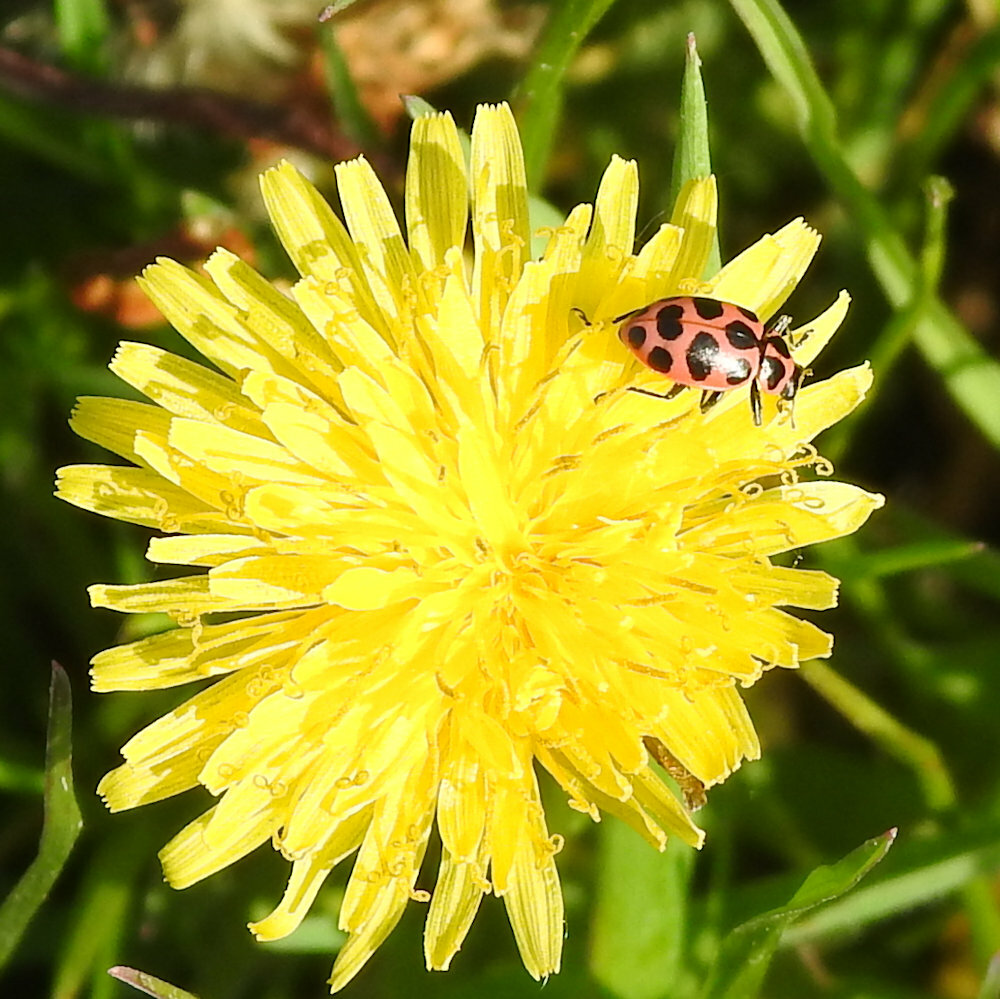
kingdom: Animalia
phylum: Arthropoda
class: Insecta
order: Coleoptera
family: Coccinellidae
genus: Coleomegilla
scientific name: Coleomegilla maculata
